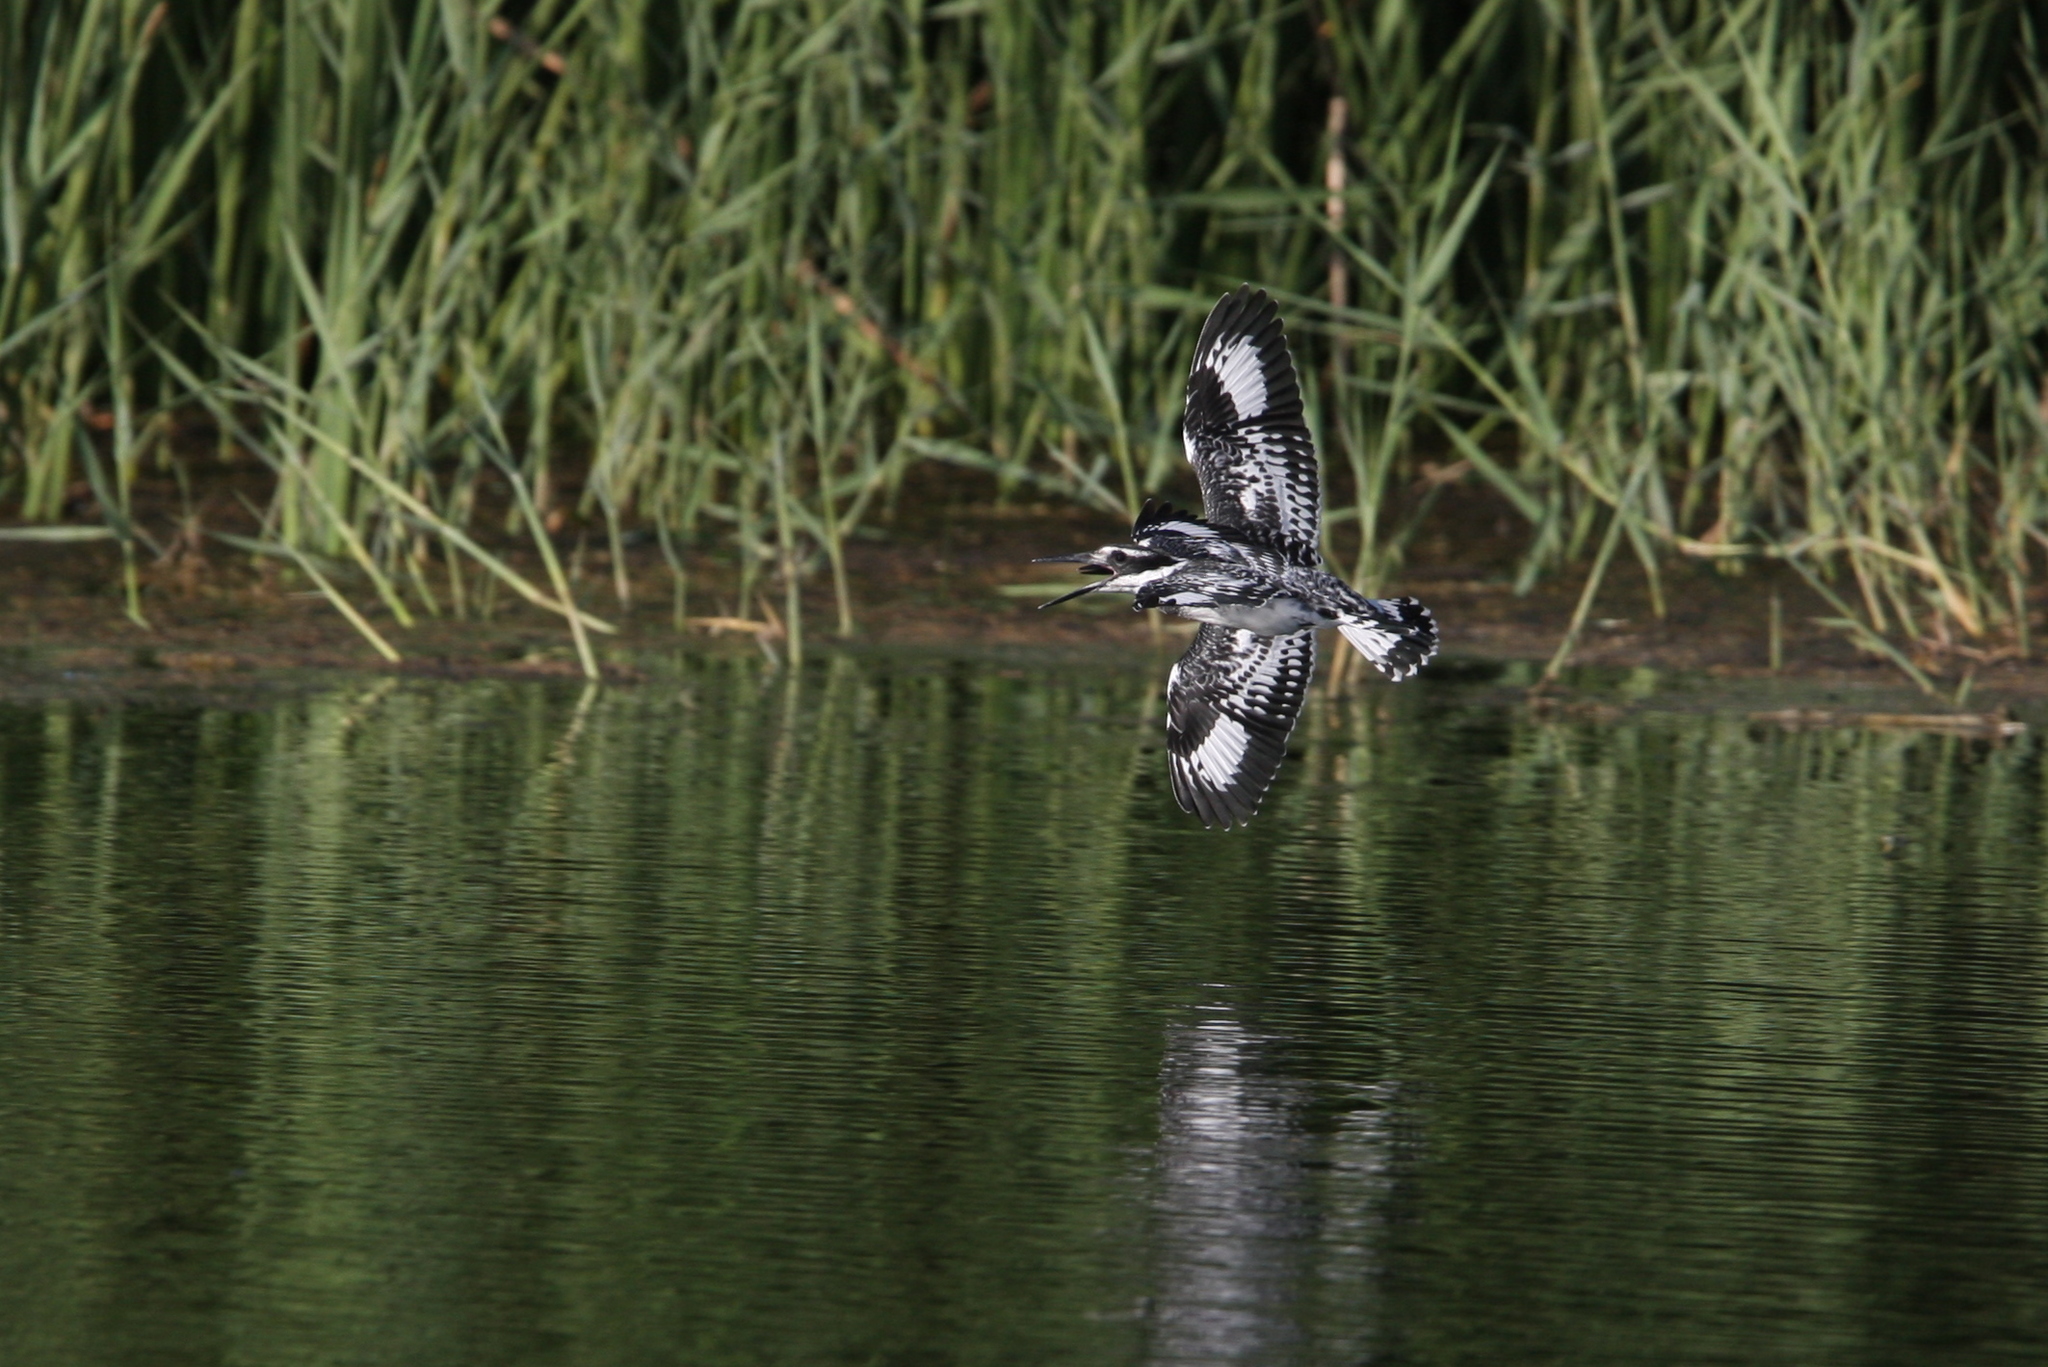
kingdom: Animalia
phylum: Chordata
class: Aves
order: Coraciiformes
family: Alcedinidae
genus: Ceryle
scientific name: Ceryle rudis
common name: Pied kingfisher
